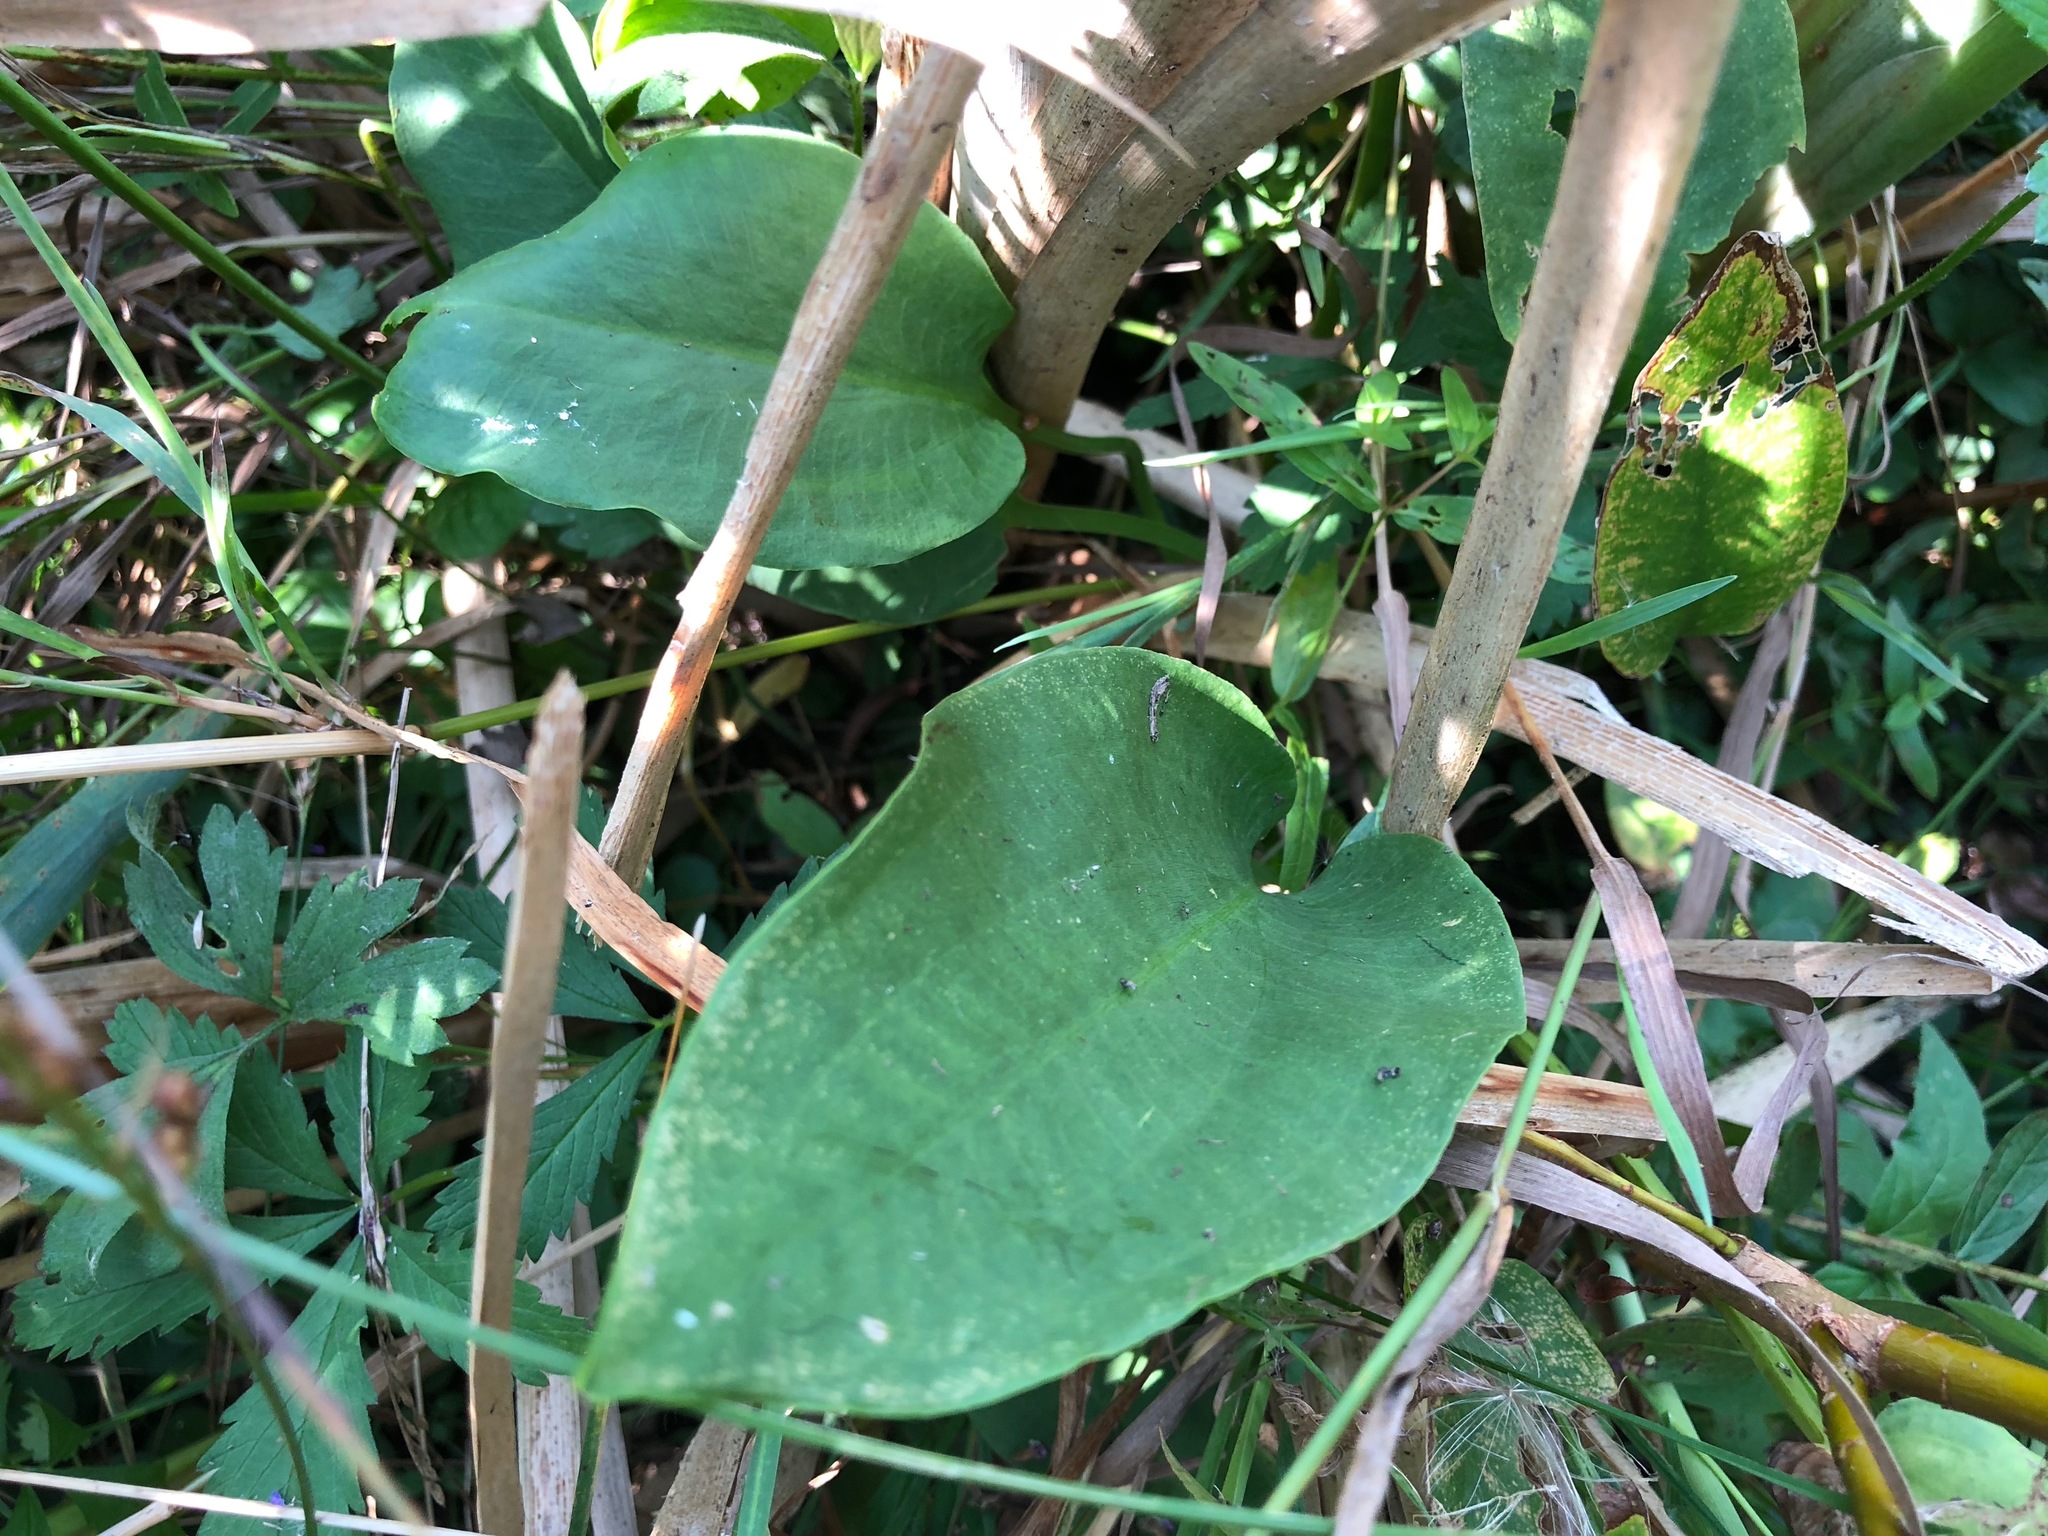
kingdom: Plantae
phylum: Tracheophyta
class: Liliopsida
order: Alismatales
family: Alismataceae
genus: Alisma
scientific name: Alisma plantago-aquatica
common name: Water-plantain
